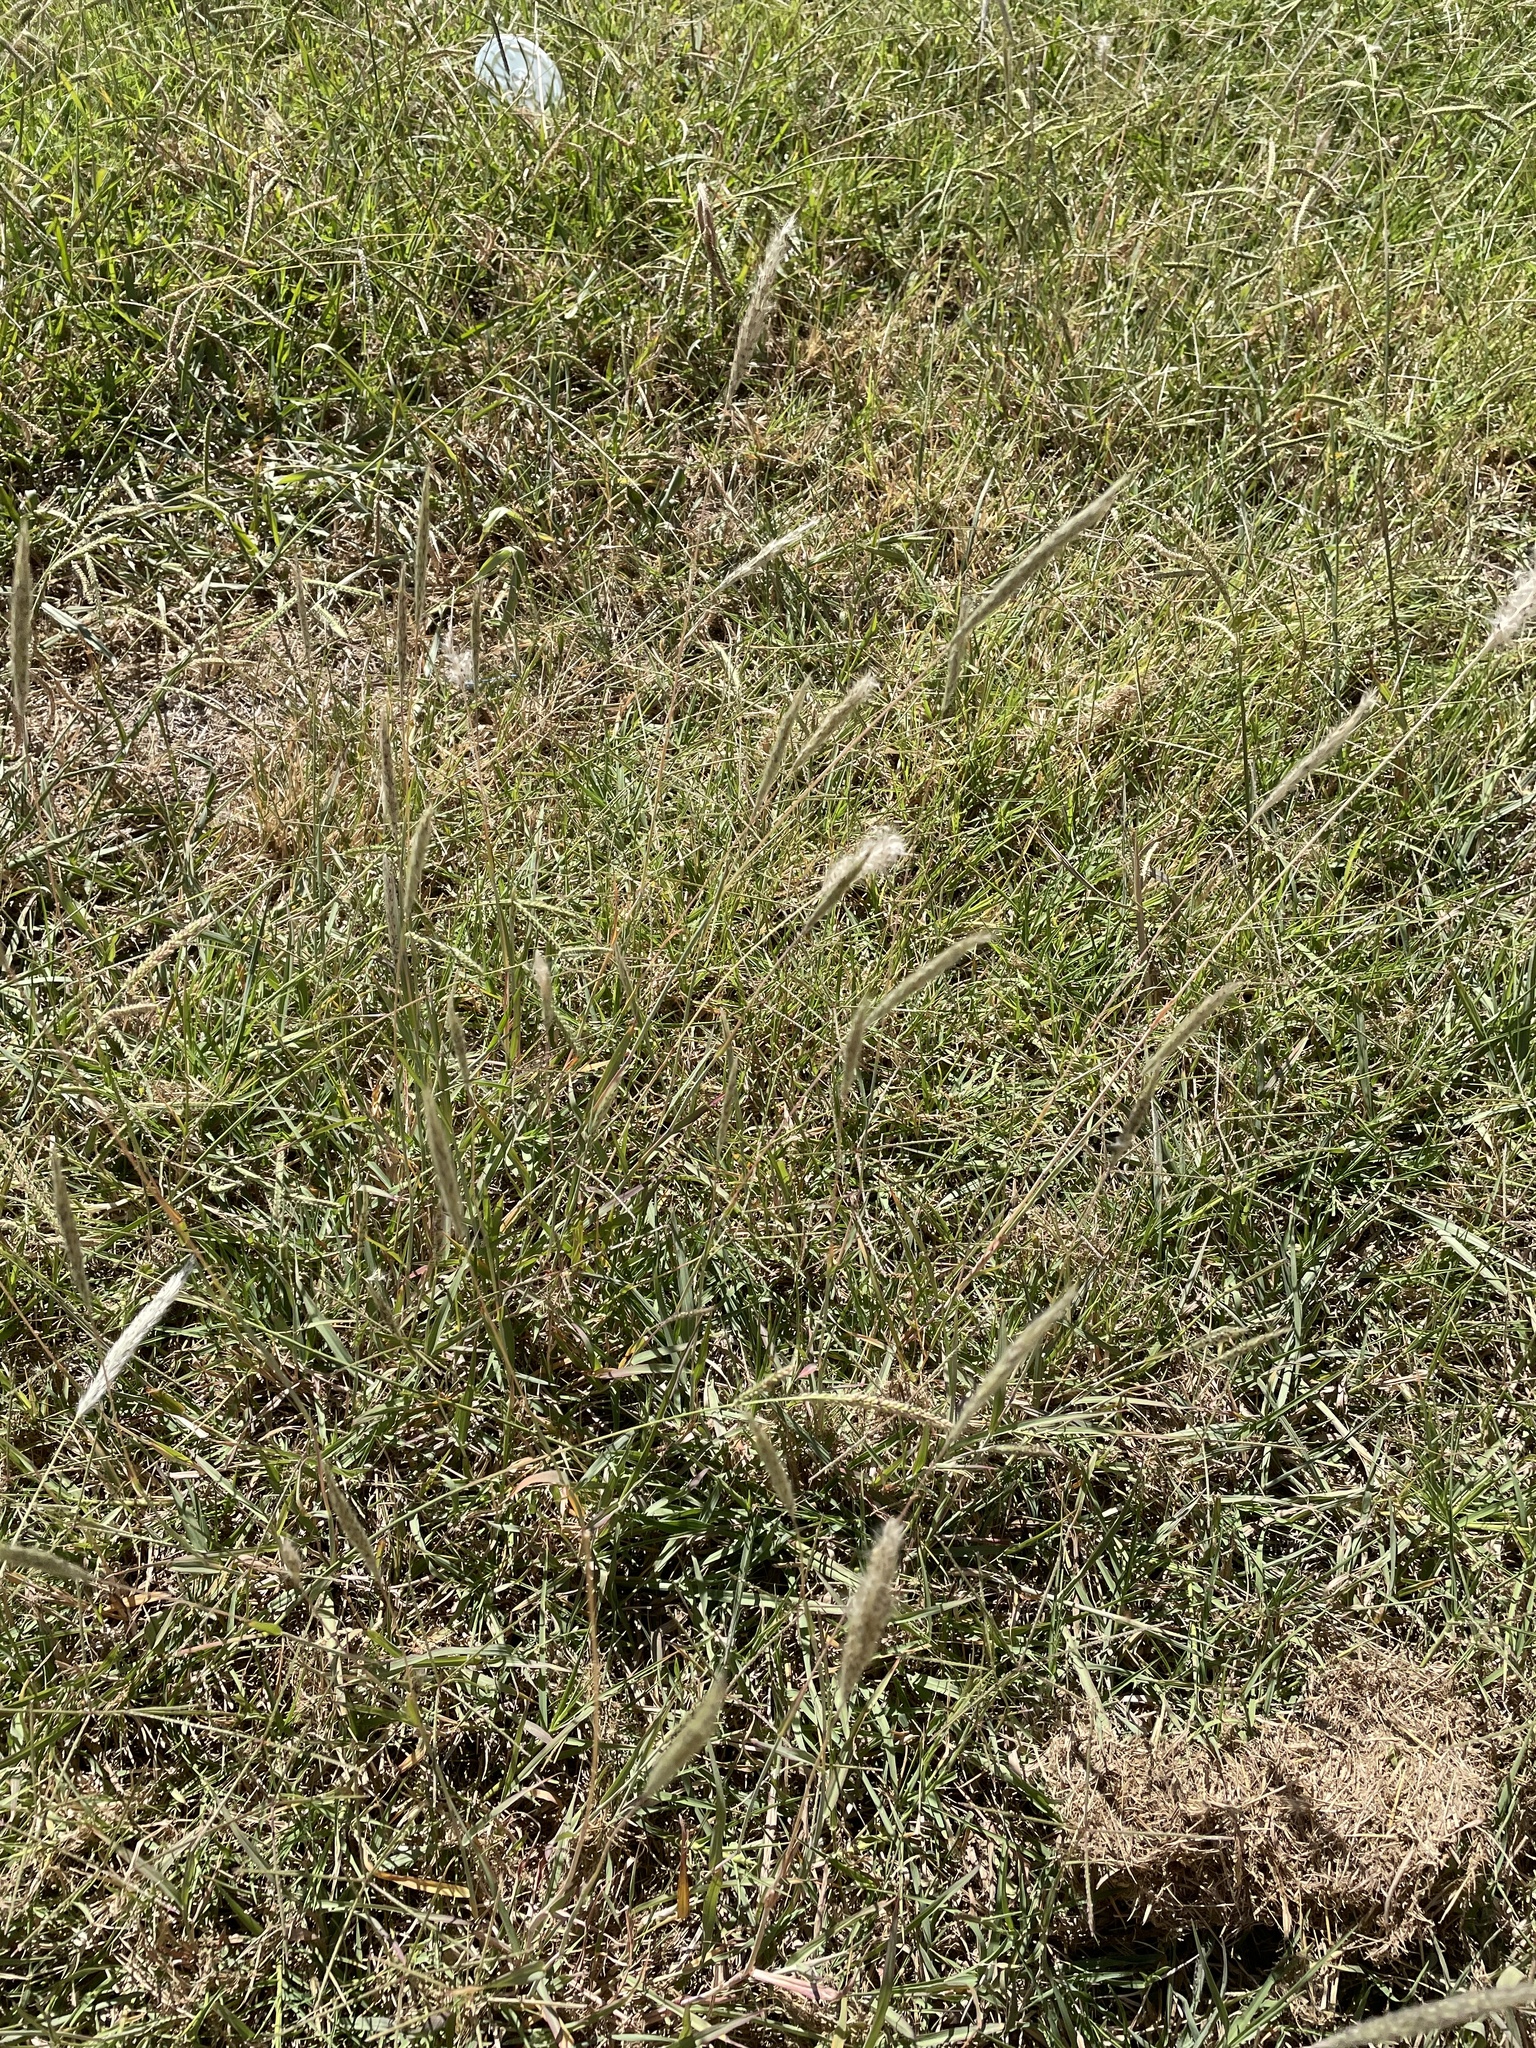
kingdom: Plantae
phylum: Tracheophyta
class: Liliopsida
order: Poales
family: Poaceae
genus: Bothriochloa
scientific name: Bothriochloa torreyana
